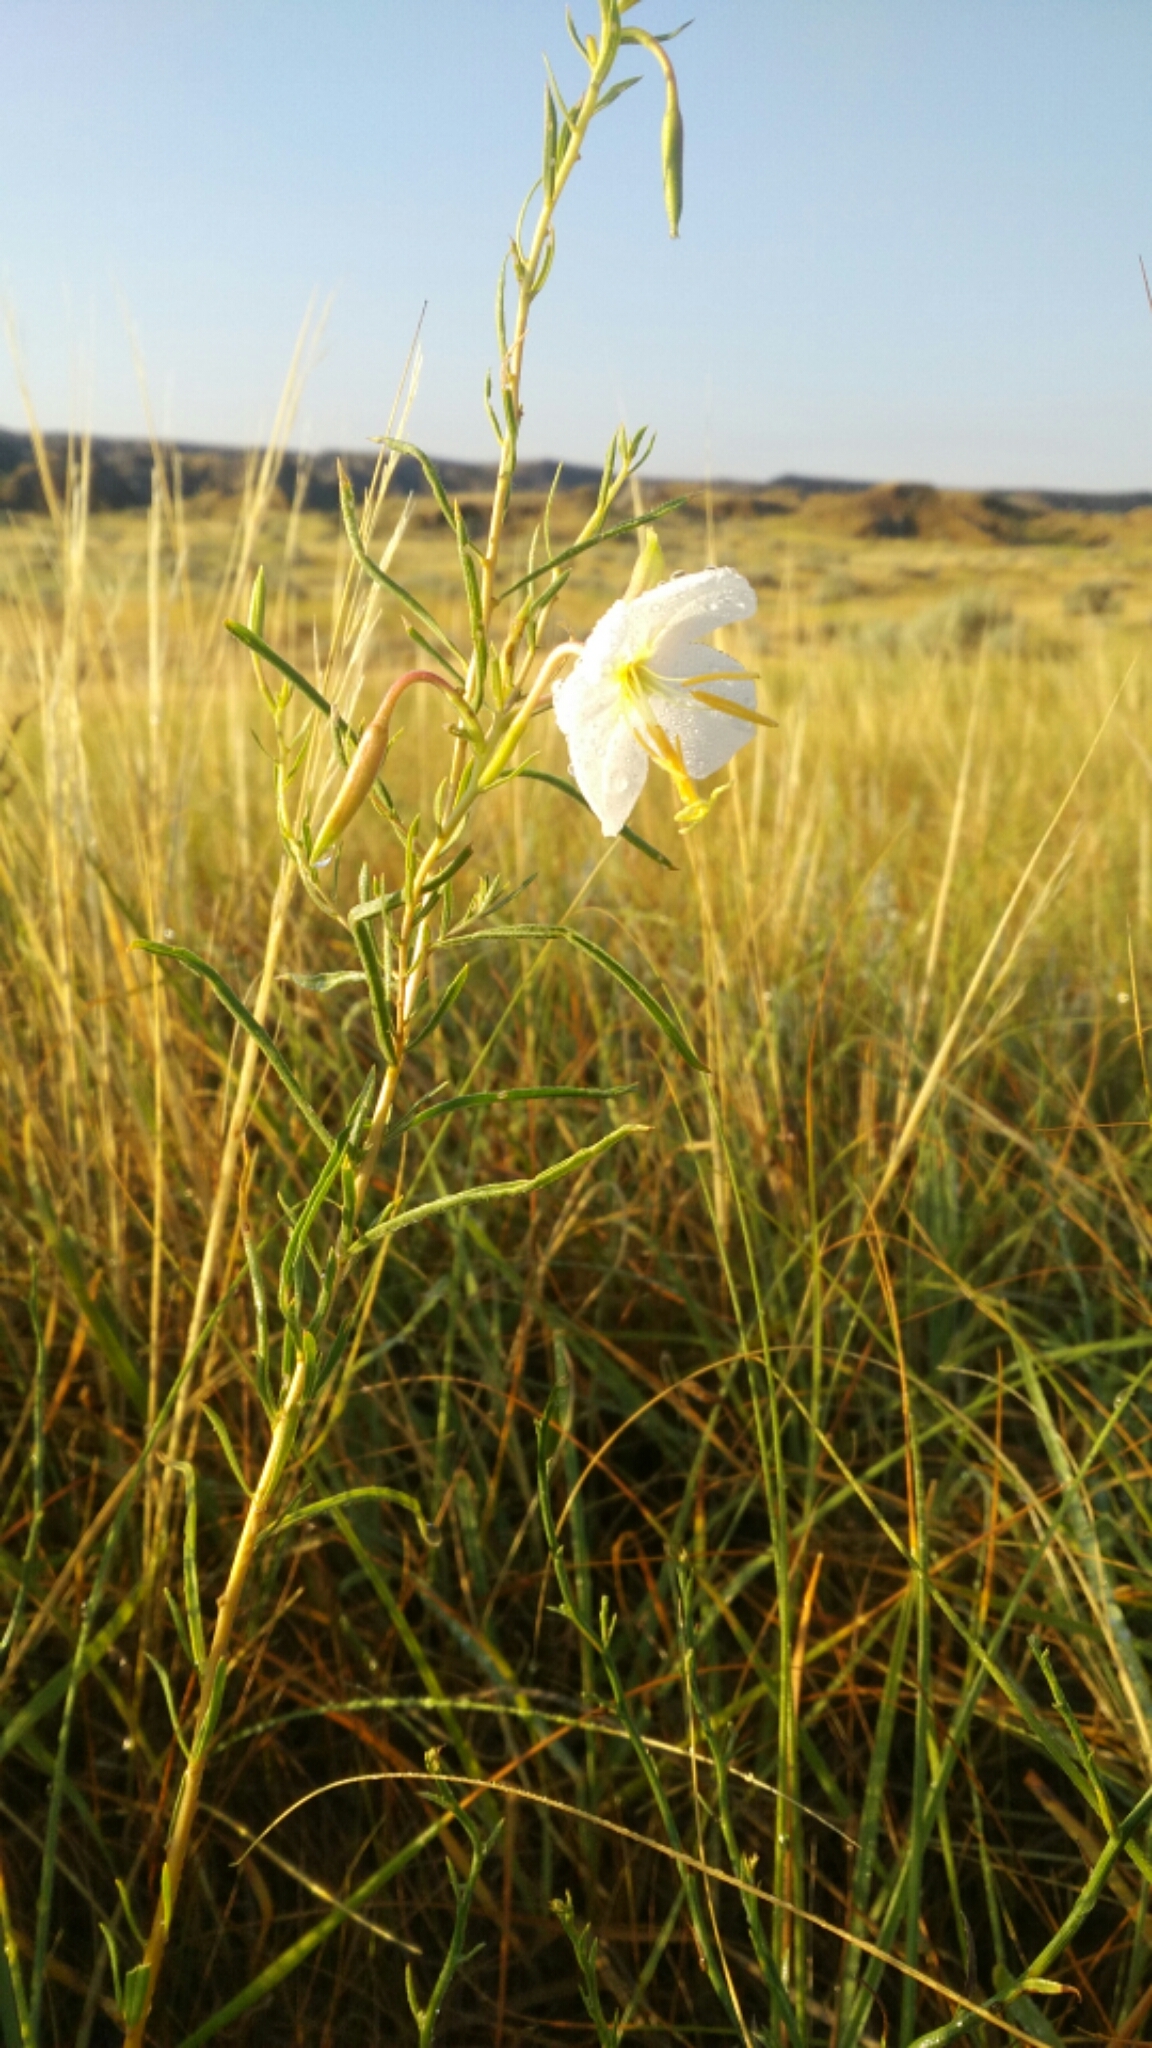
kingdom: Plantae
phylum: Tracheophyta
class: Magnoliopsida
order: Myrtales
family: Onagraceae
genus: Oenothera
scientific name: Oenothera nuttallii
